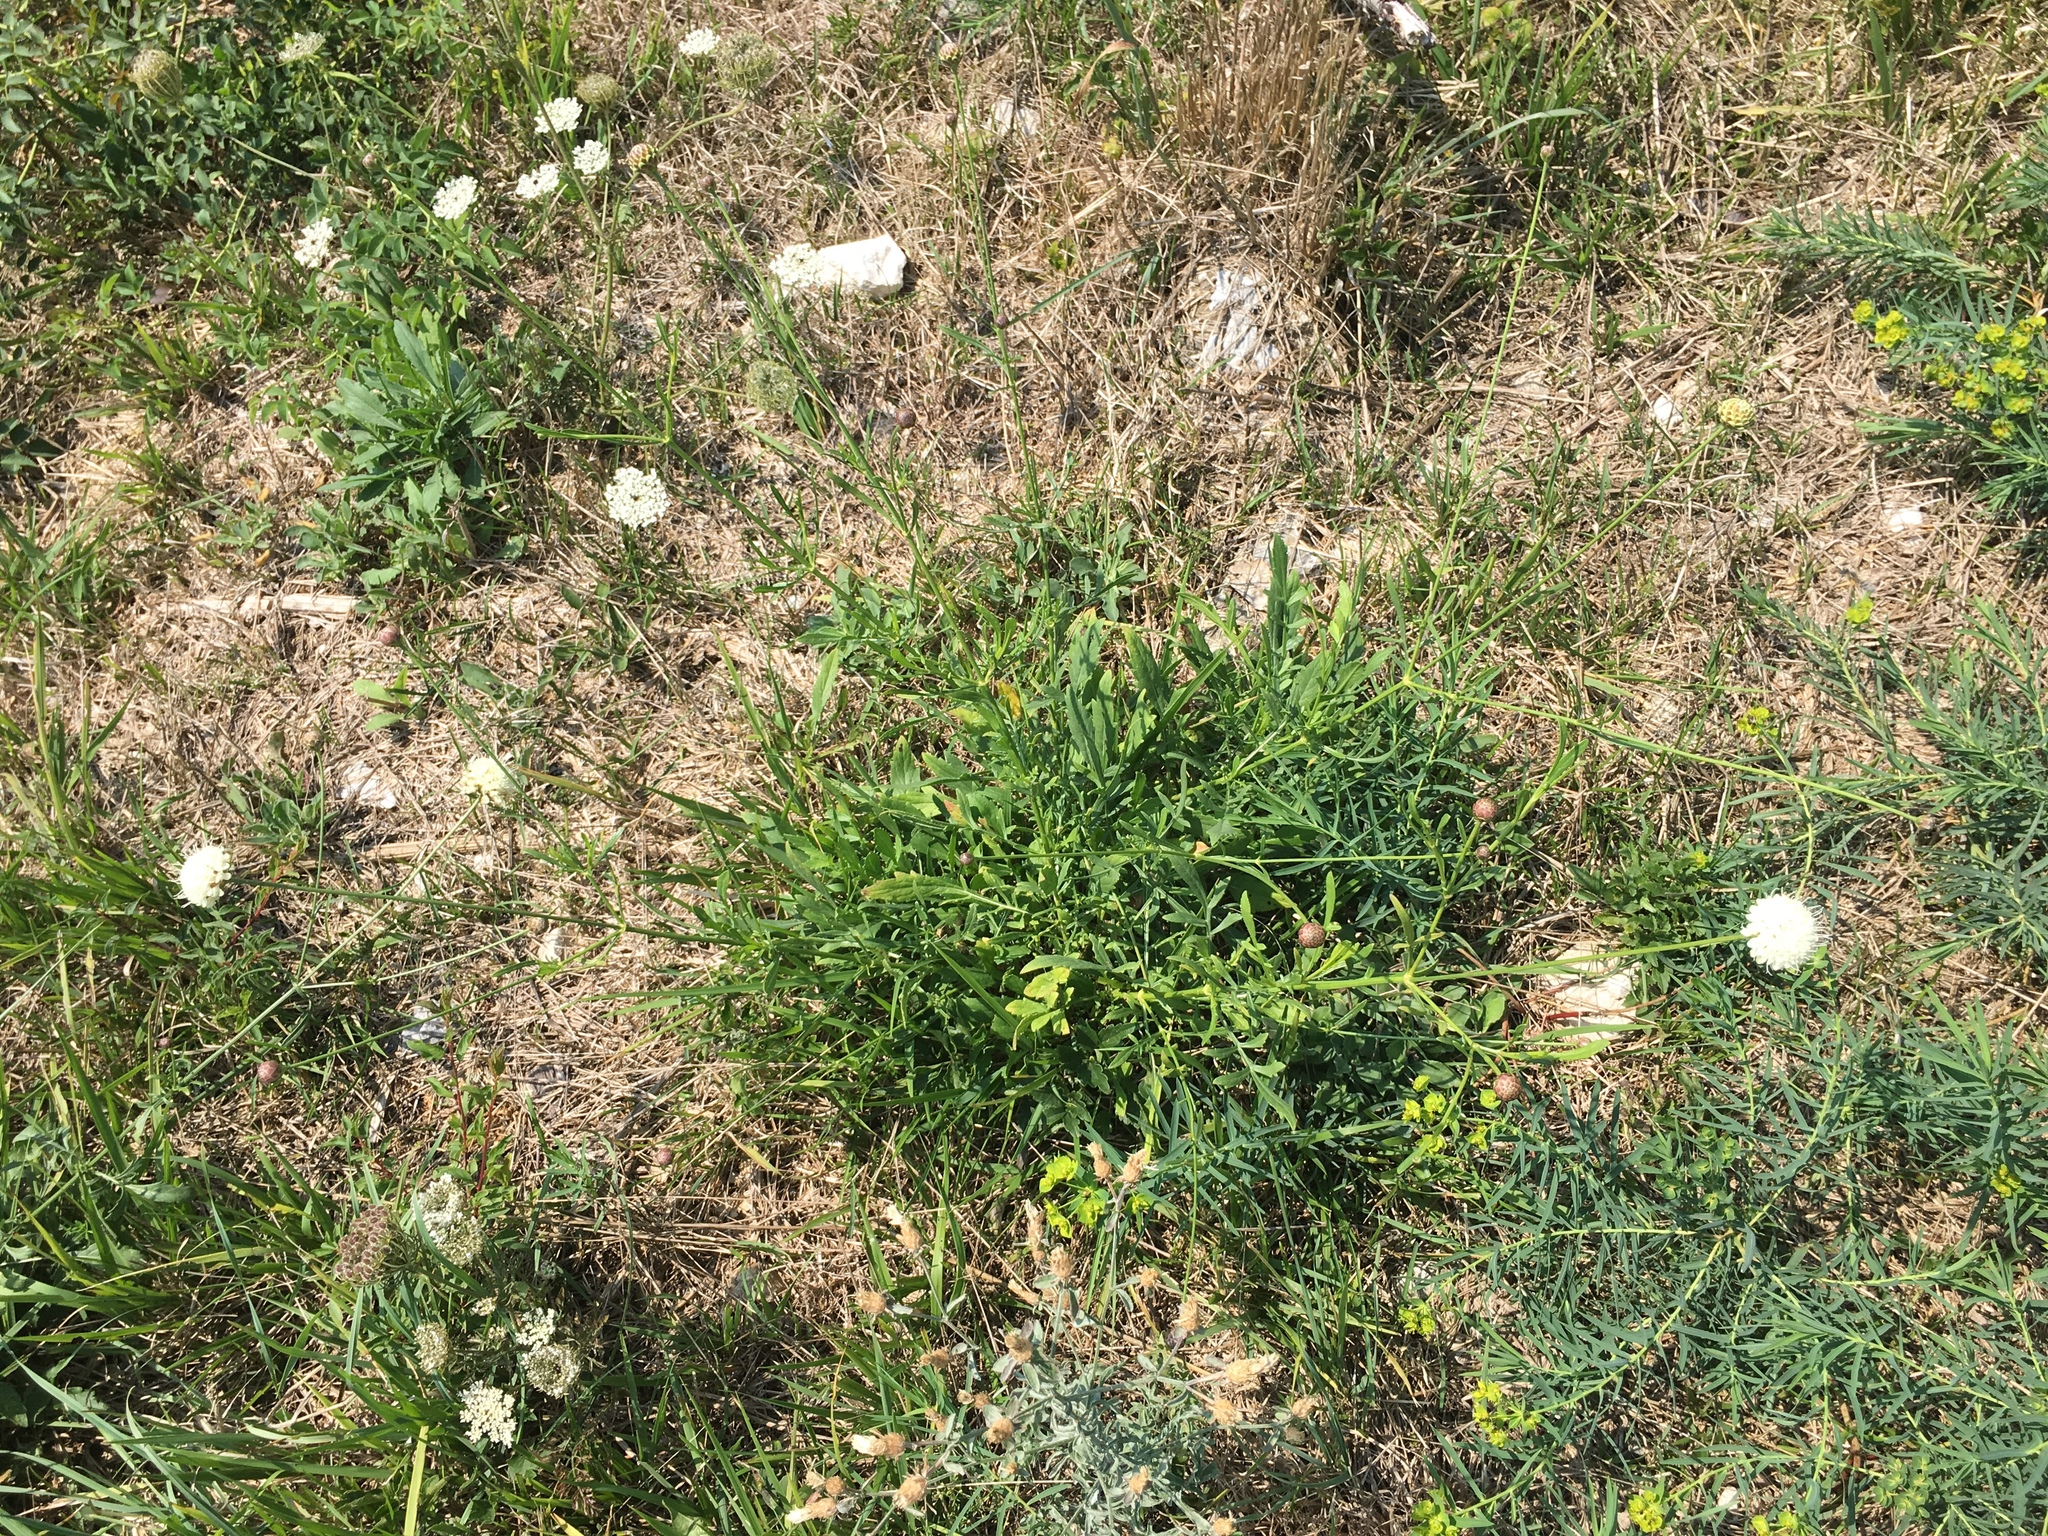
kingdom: Plantae
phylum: Tracheophyta
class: Magnoliopsida
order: Dipsacales
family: Caprifoliaceae
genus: Cephalaria
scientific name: Cephalaria leucantha
